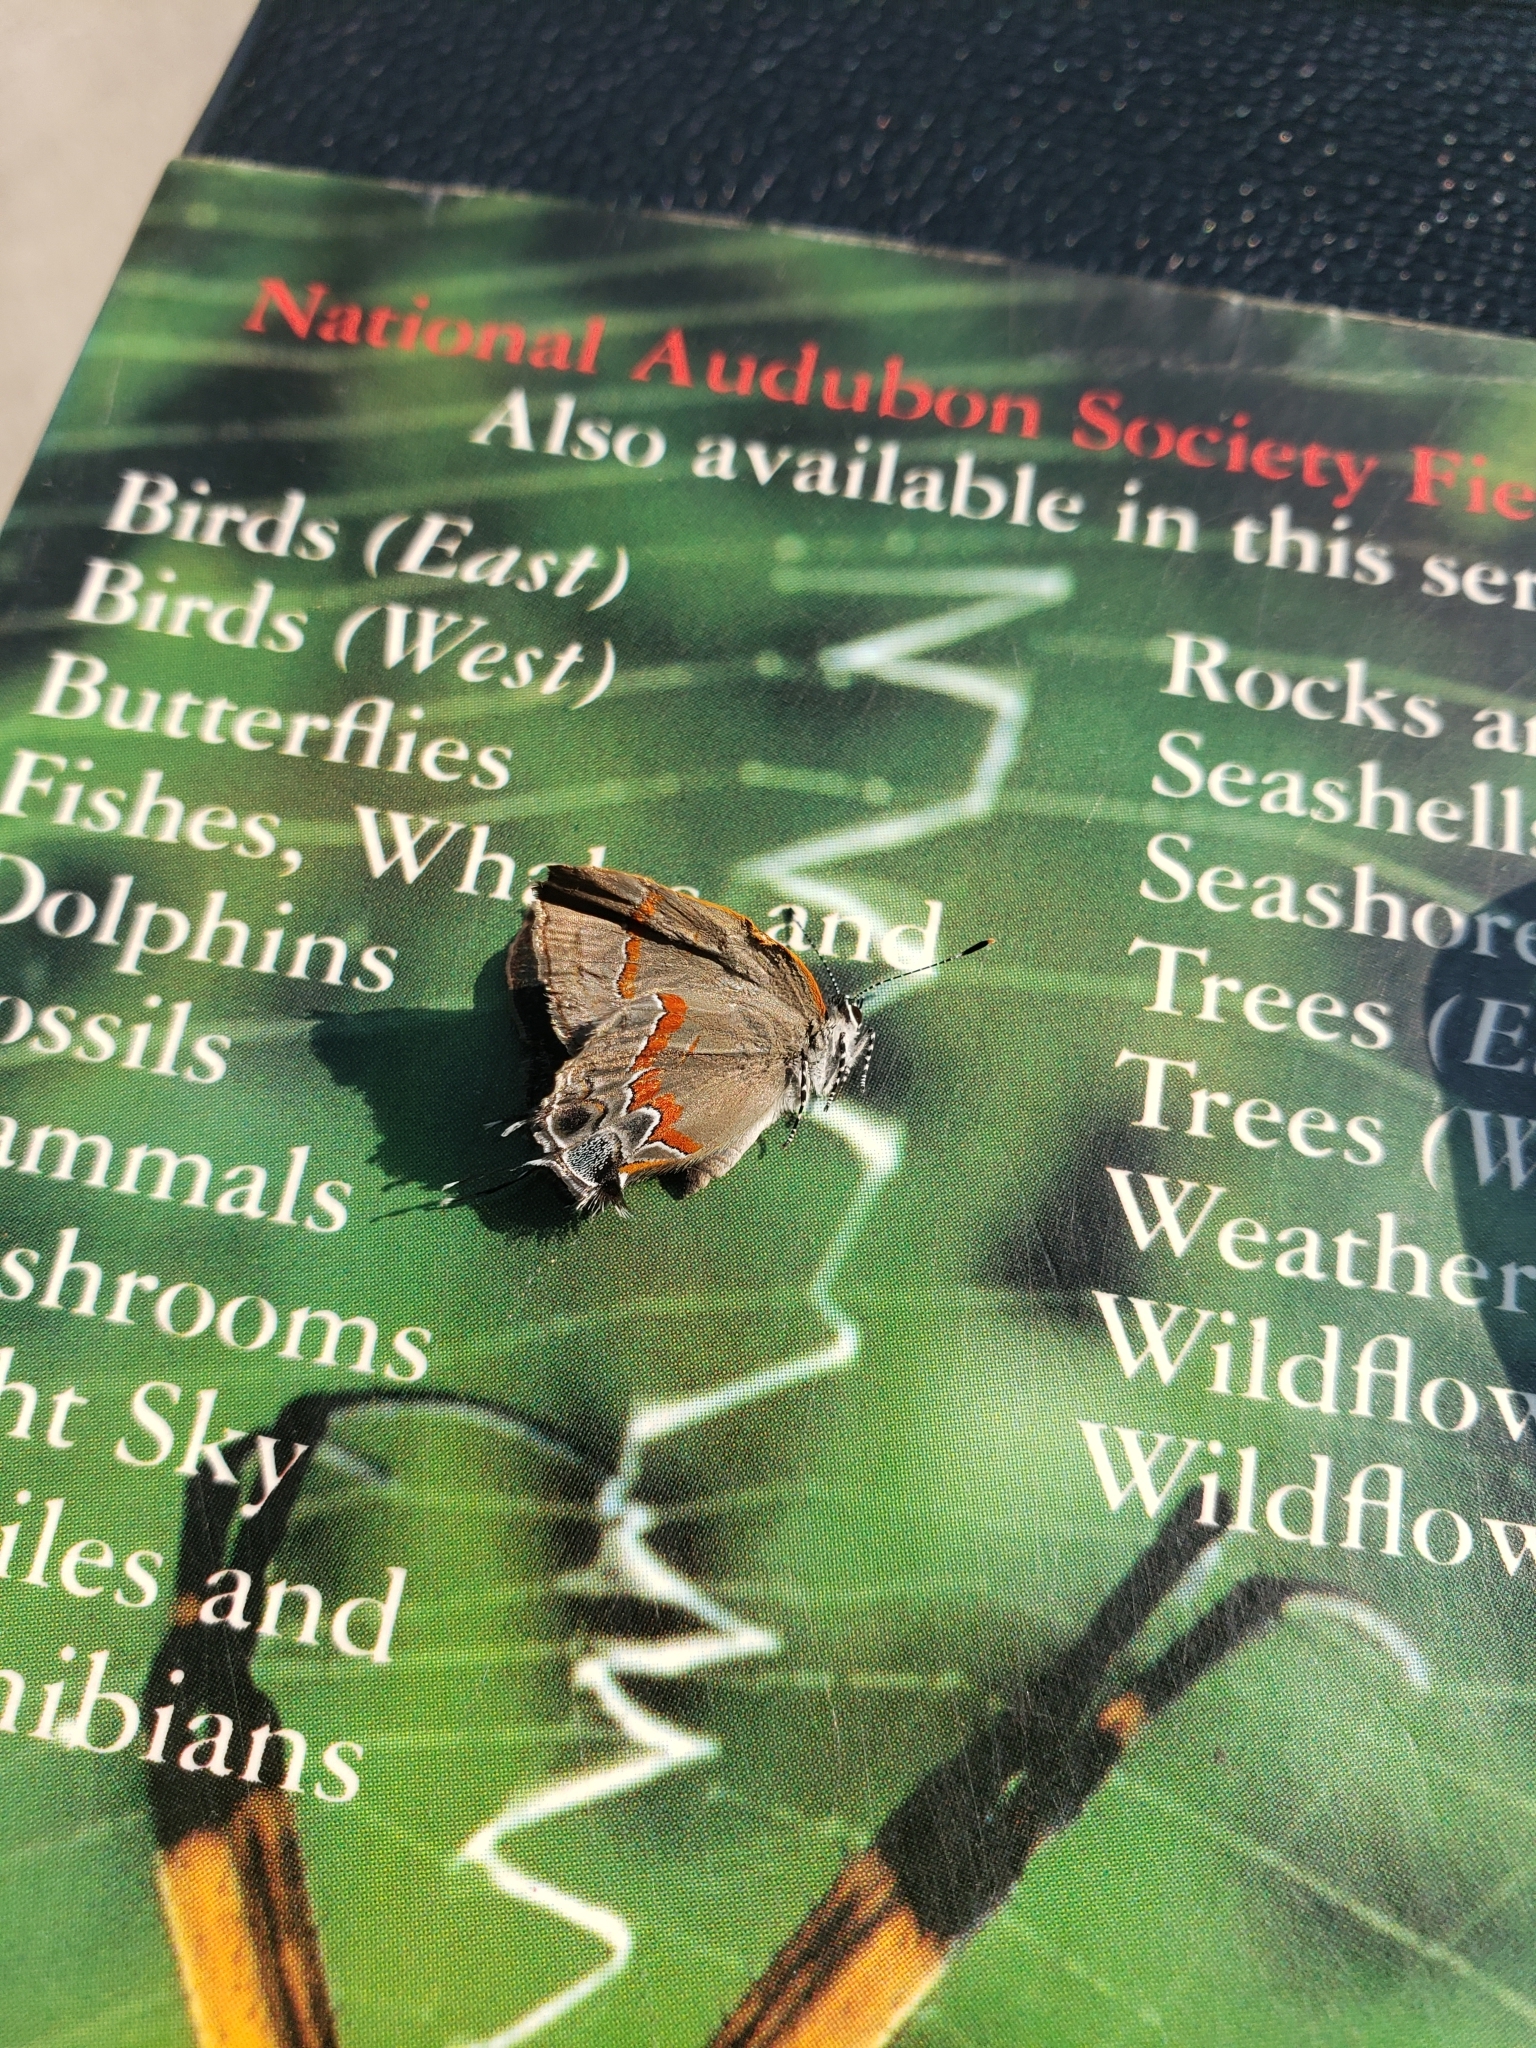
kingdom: Animalia
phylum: Arthropoda
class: Insecta
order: Lepidoptera
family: Lycaenidae
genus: Calycopis
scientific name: Calycopis cecrops
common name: Red-banded hairstreak
